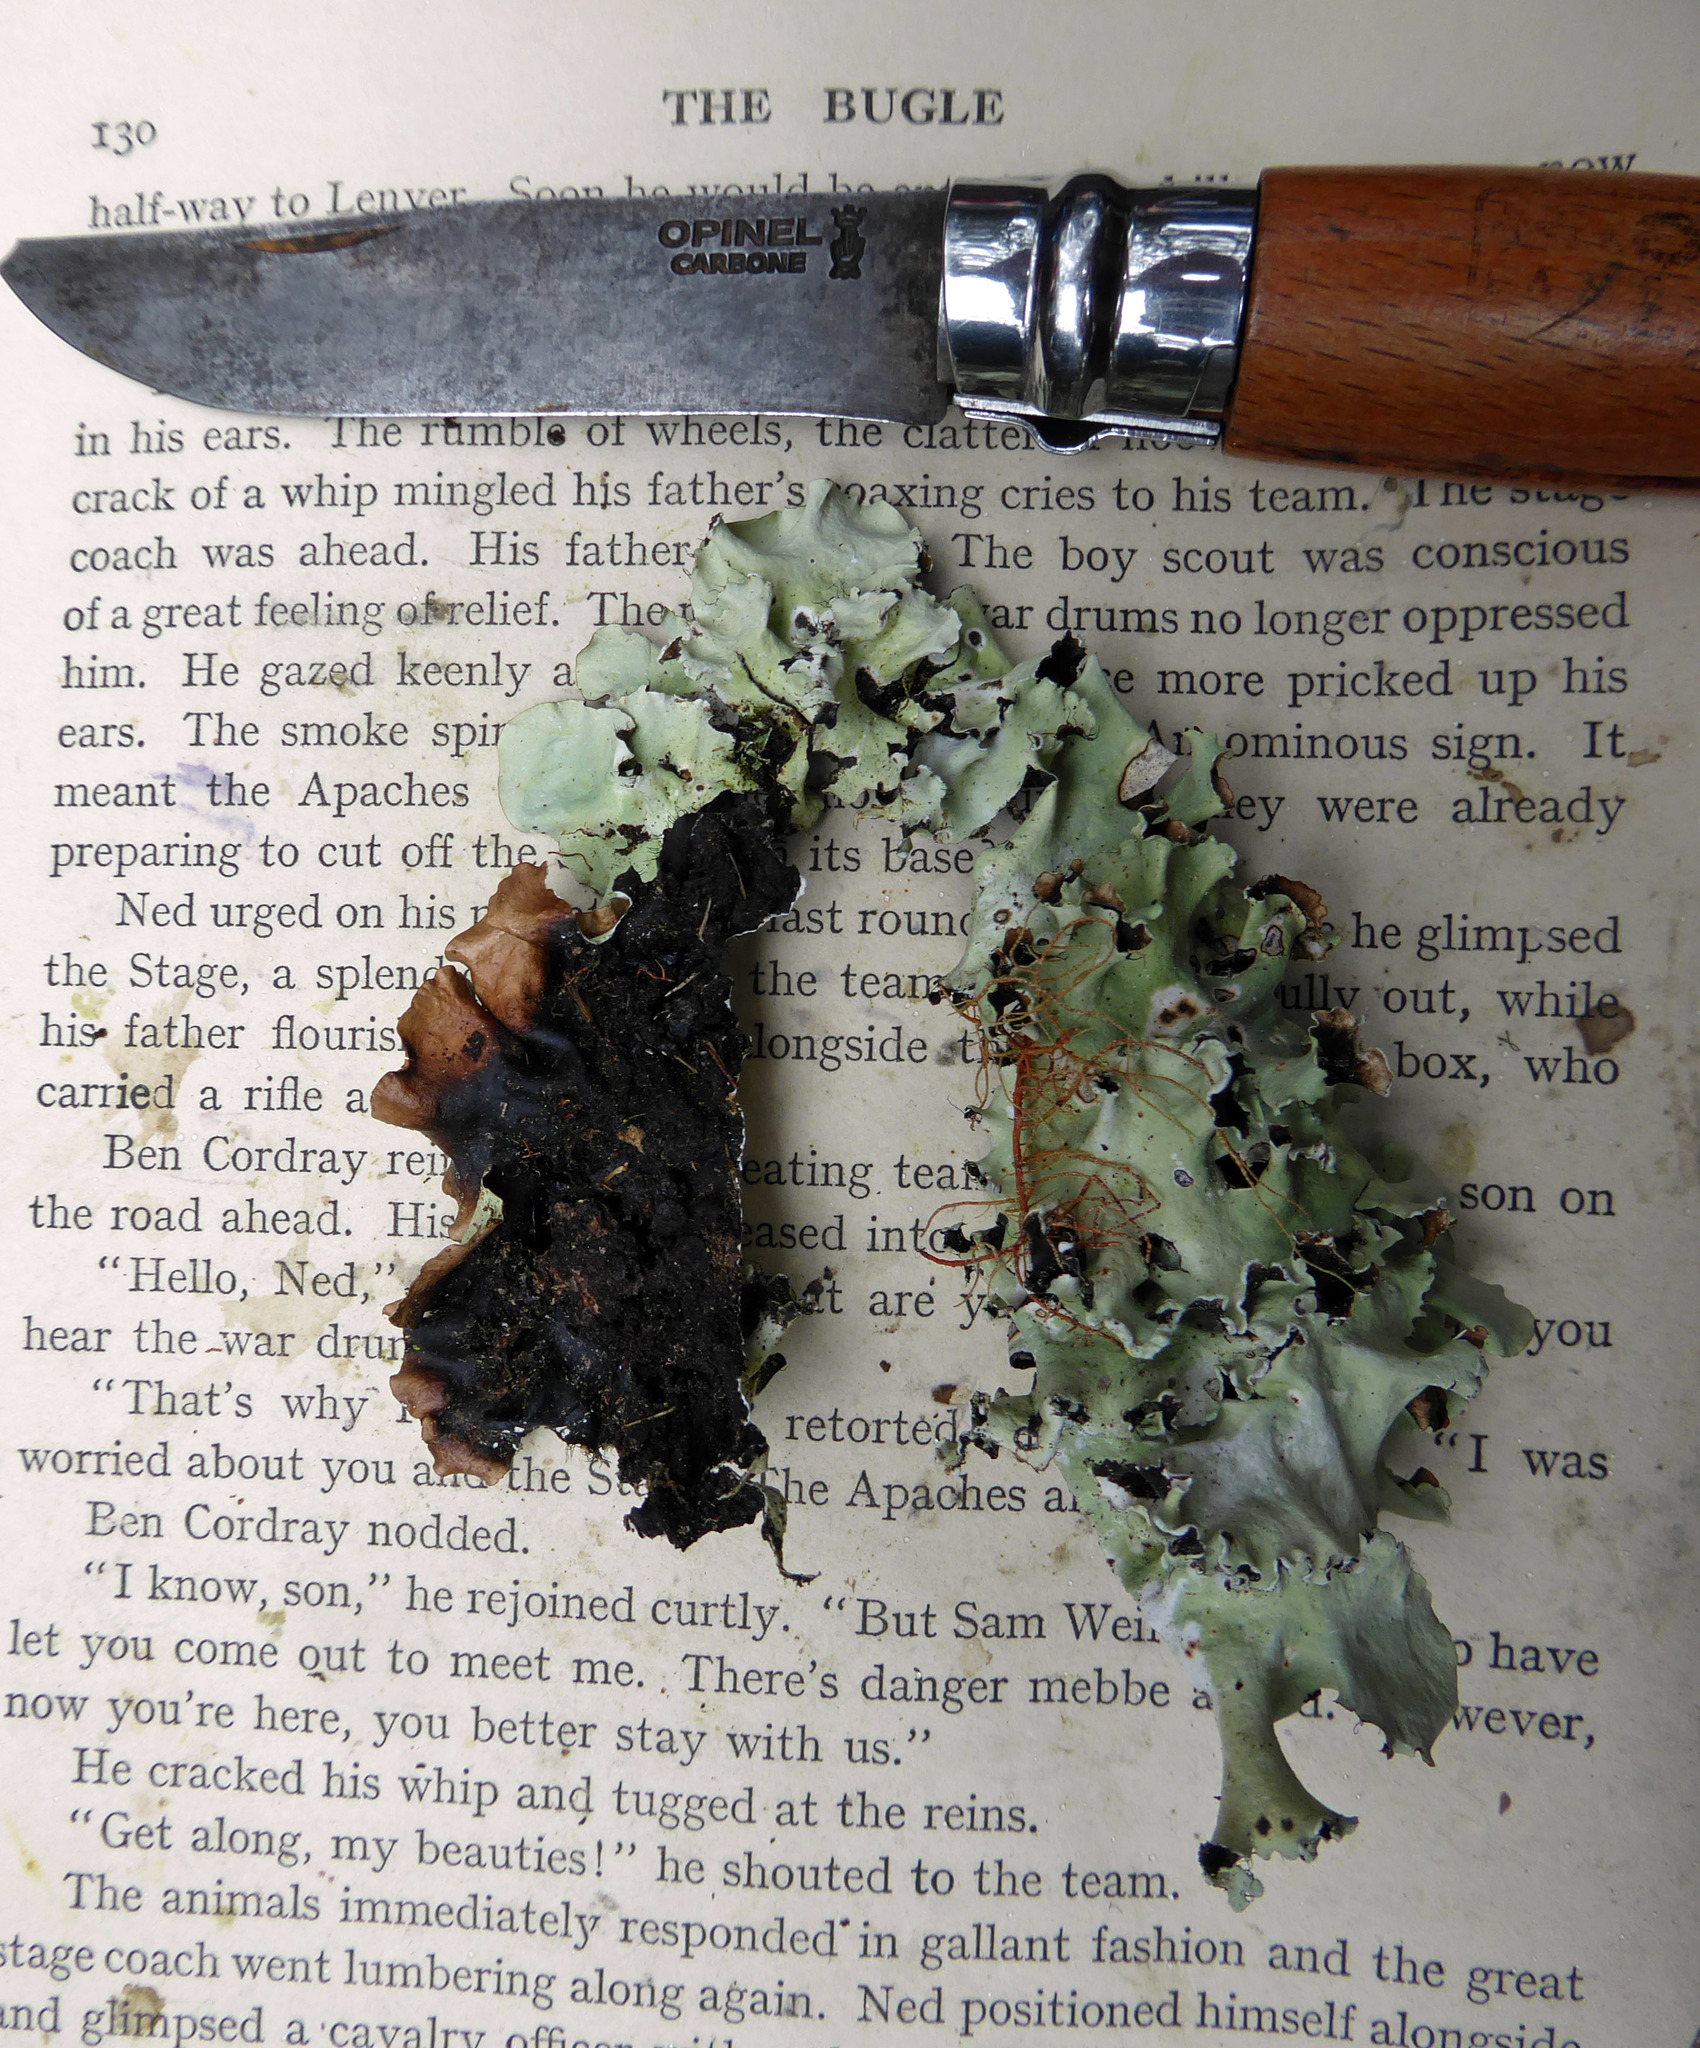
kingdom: Fungi
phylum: Ascomycota
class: Lecanoromycetes
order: Lecanorales
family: Parmeliaceae
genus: Parmotrema
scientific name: Parmotrema robustum
